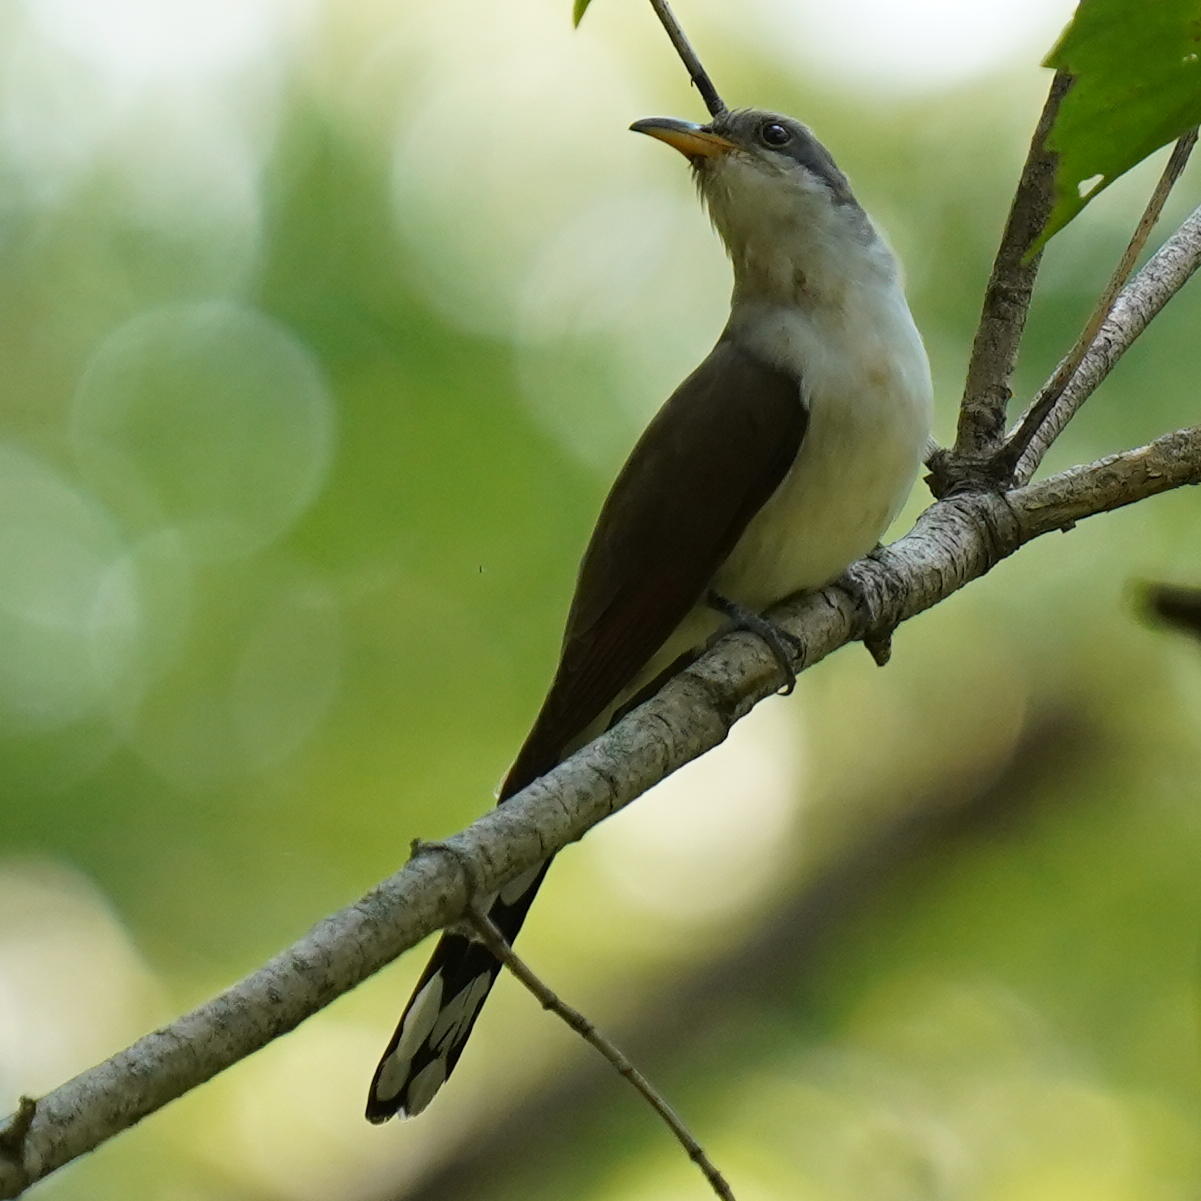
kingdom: Animalia
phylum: Chordata
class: Aves
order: Cuculiformes
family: Cuculidae
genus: Coccyzus
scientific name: Coccyzus americanus
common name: Yellow-billed cuckoo
